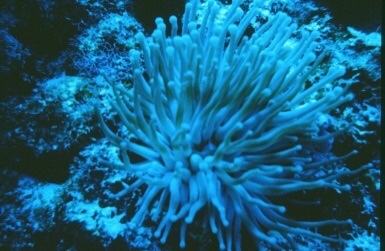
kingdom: Animalia
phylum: Cnidaria
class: Anthozoa
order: Actiniaria
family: Actiniidae
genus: Condylactis
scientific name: Condylactis gigantea
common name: Giant caribbean anemone
